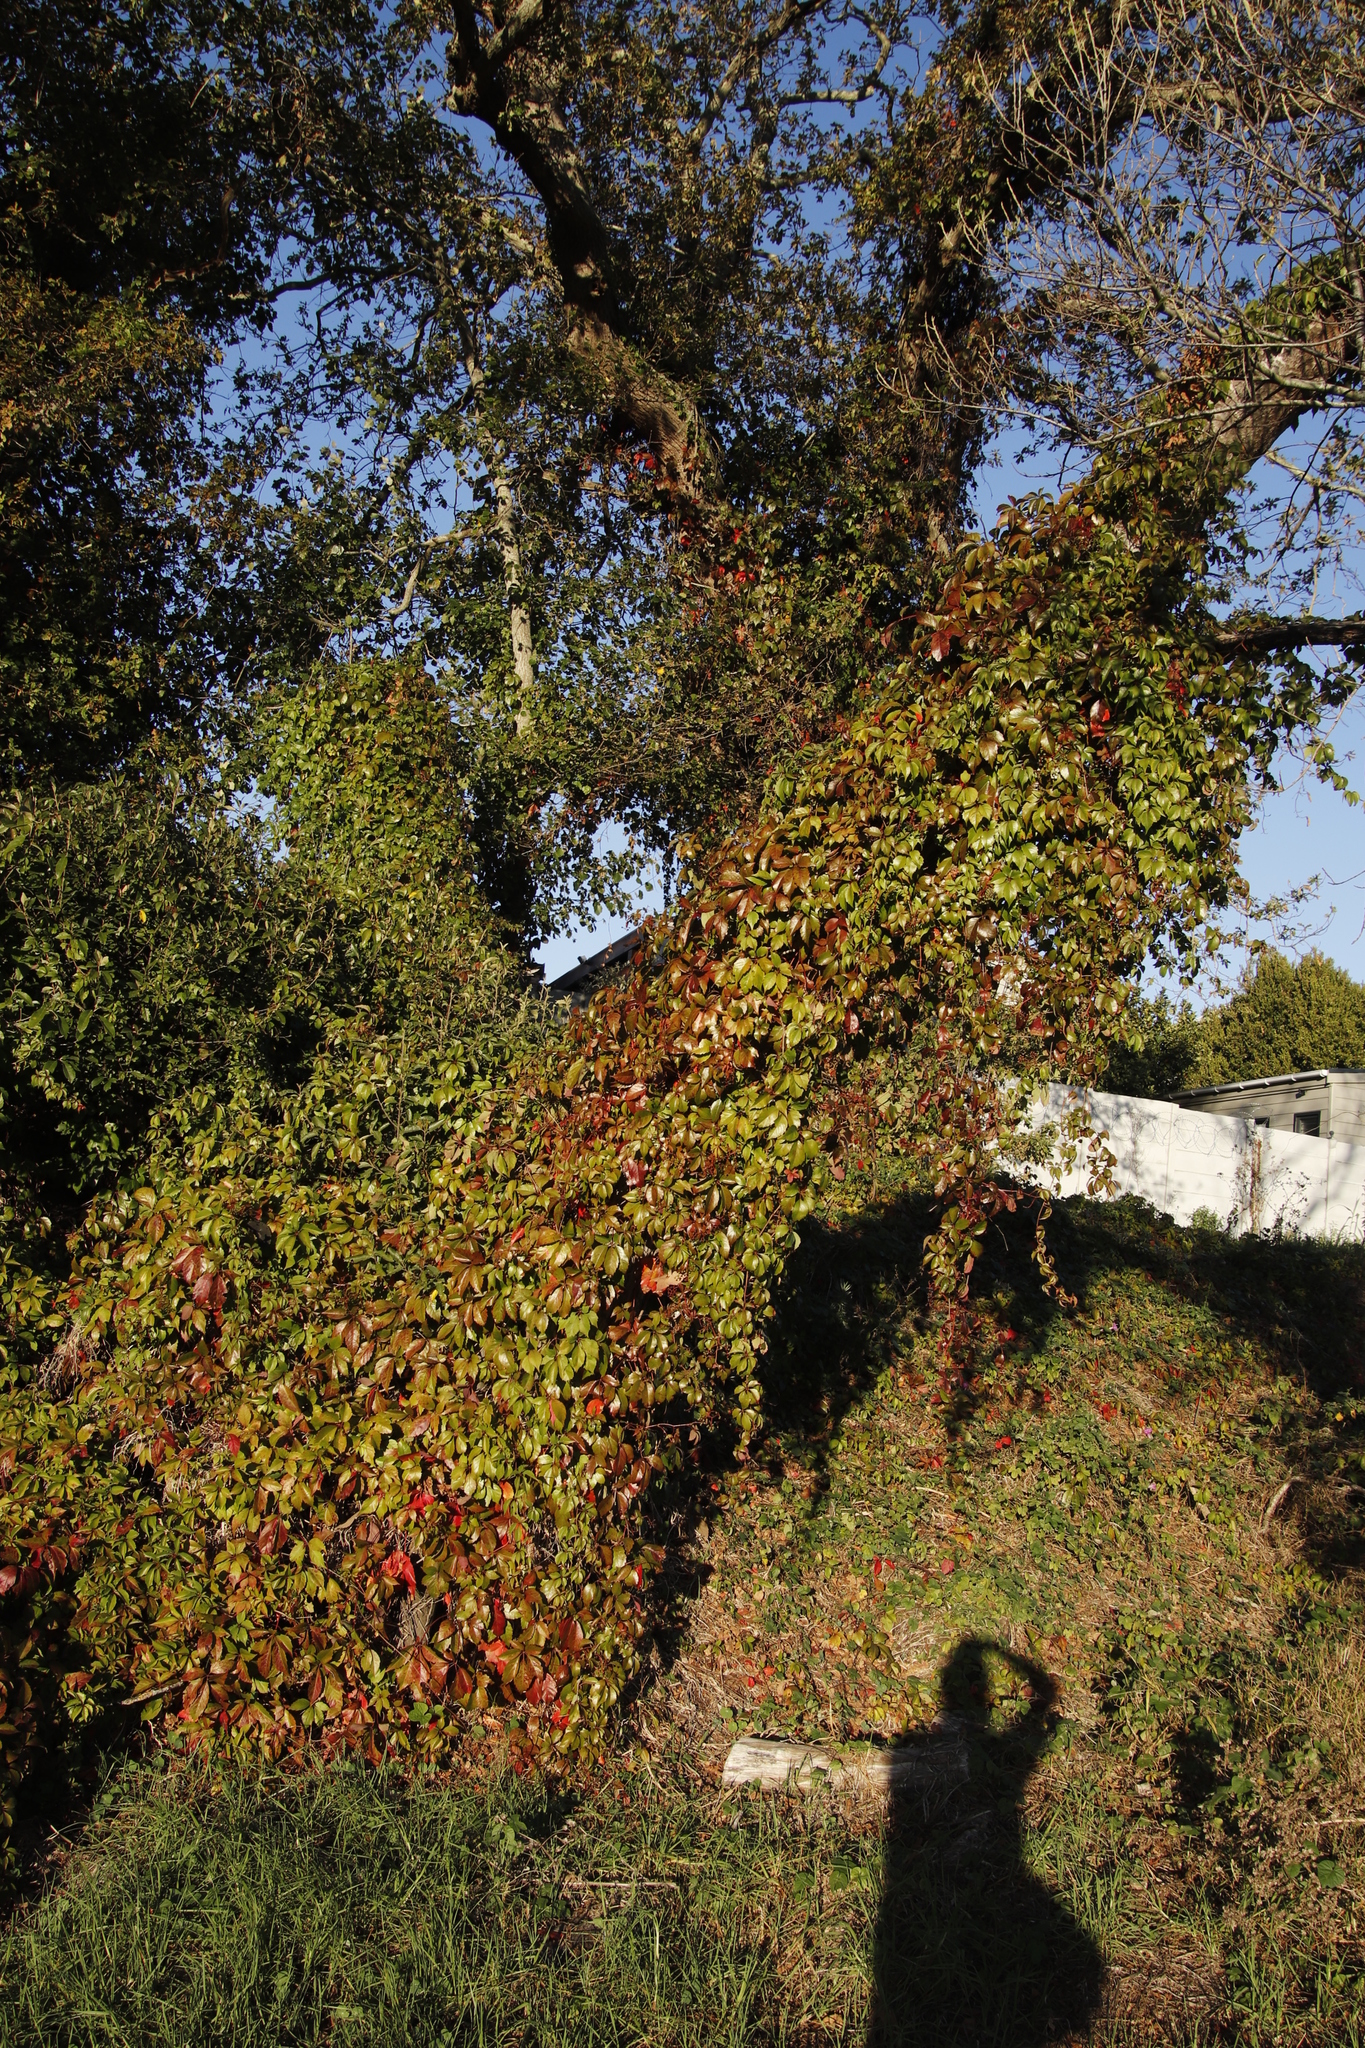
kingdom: Plantae
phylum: Tracheophyta
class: Magnoliopsida
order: Vitales
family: Vitaceae
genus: Parthenocissus
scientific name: Parthenocissus quinquefolia
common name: Virginia-creeper
